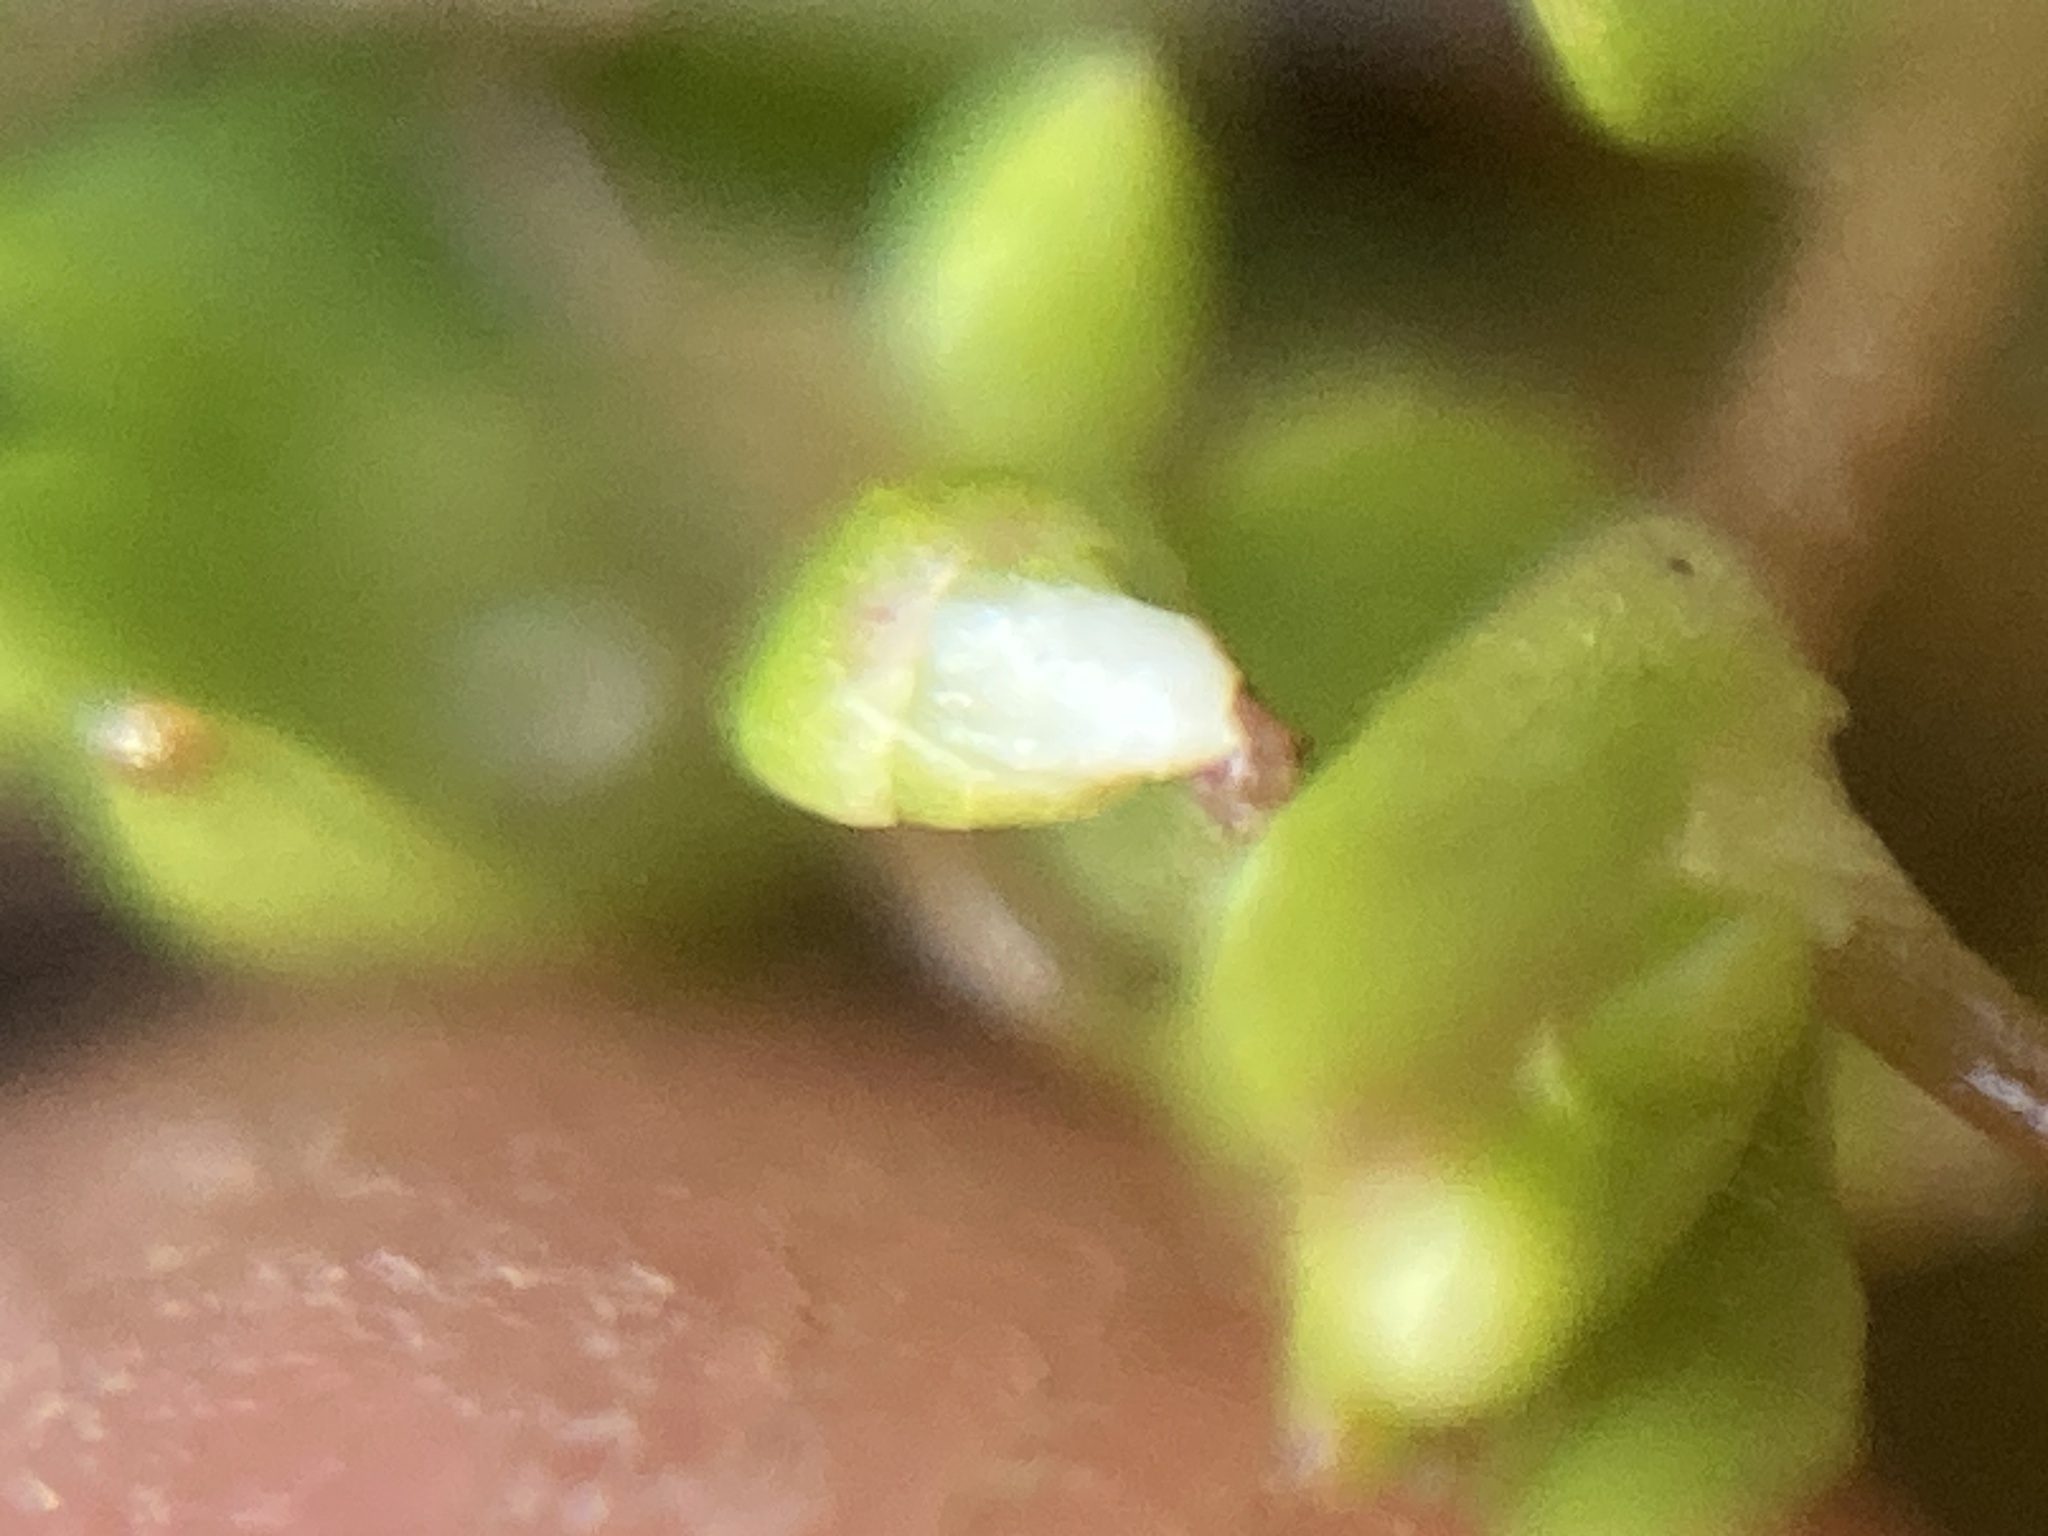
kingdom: Plantae
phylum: Tracheophyta
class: Magnoliopsida
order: Caryophyllales
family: Montiaceae
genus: Montia
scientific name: Montia fontana
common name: Blinks
